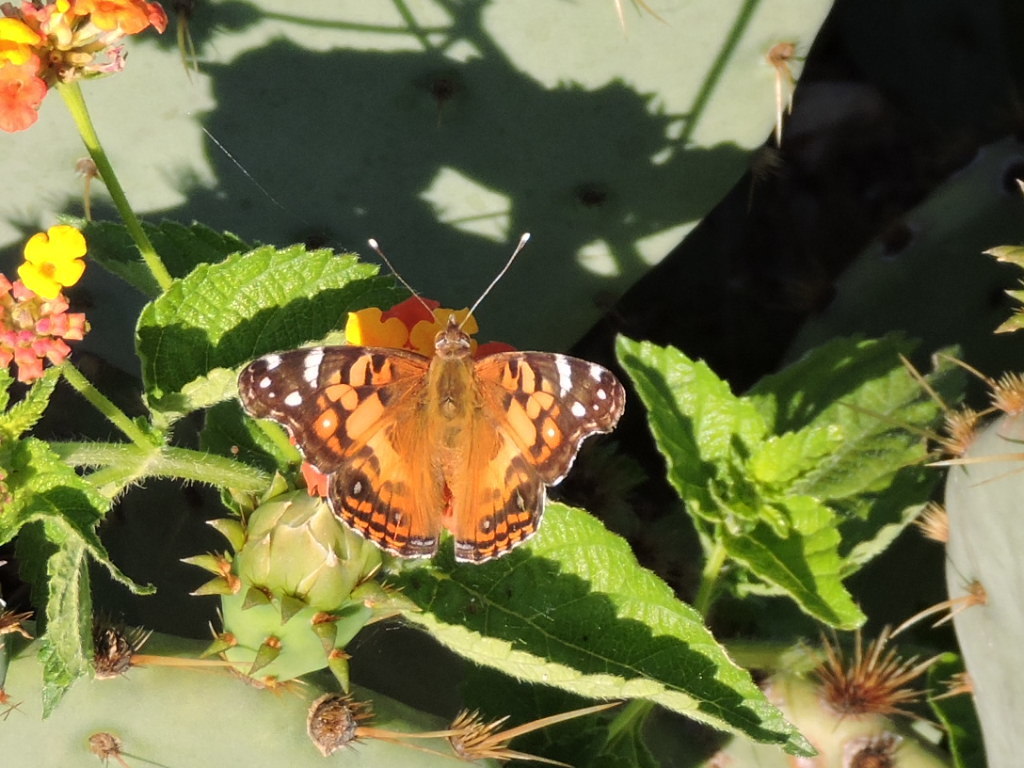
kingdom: Animalia
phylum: Arthropoda
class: Insecta
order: Lepidoptera
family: Nymphalidae
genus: Vanessa
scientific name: Vanessa virginiensis
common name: American lady
